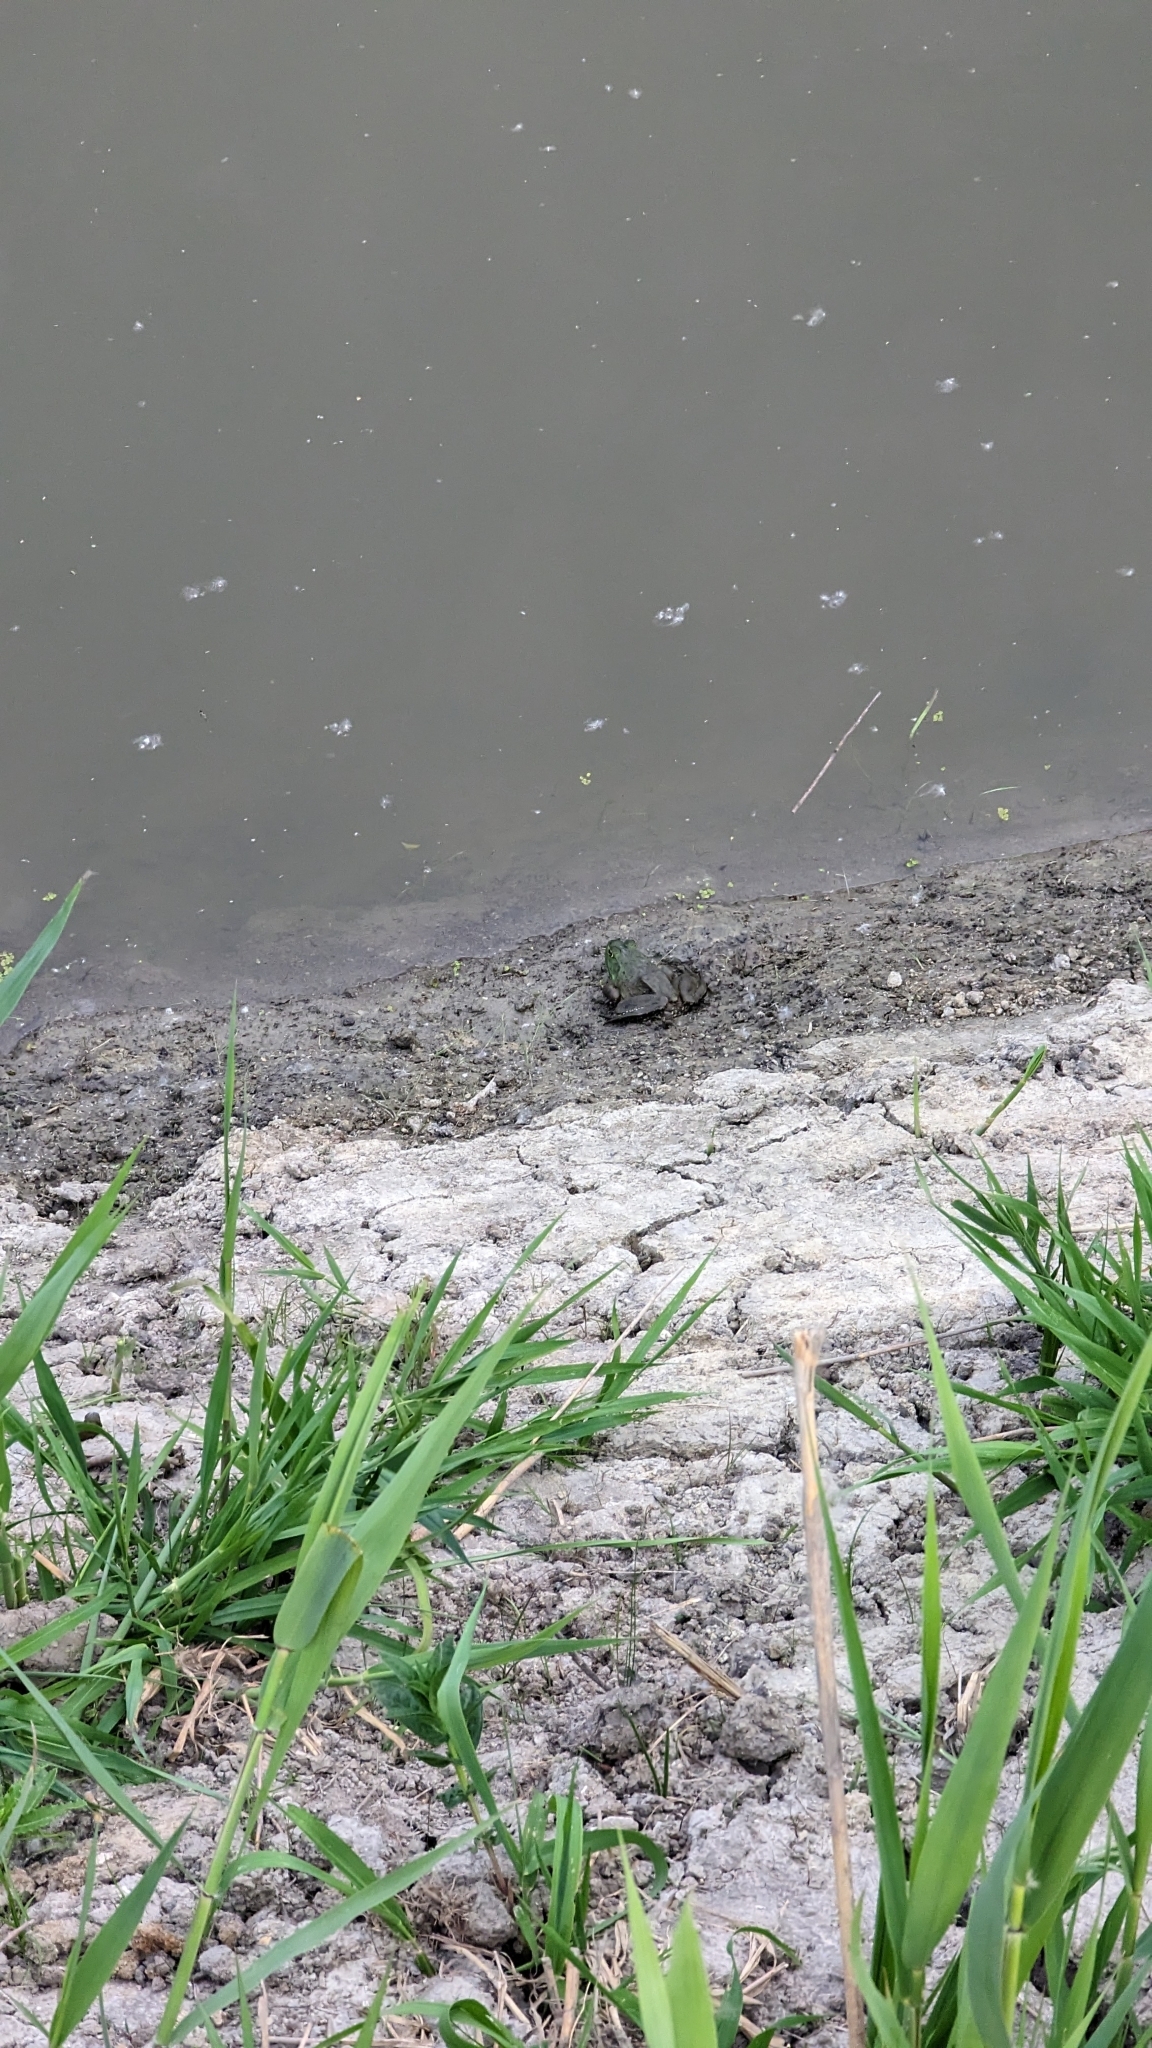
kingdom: Animalia
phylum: Chordata
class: Amphibia
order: Anura
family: Ranidae
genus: Lithobates
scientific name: Lithobates catesbeianus
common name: American bullfrog
